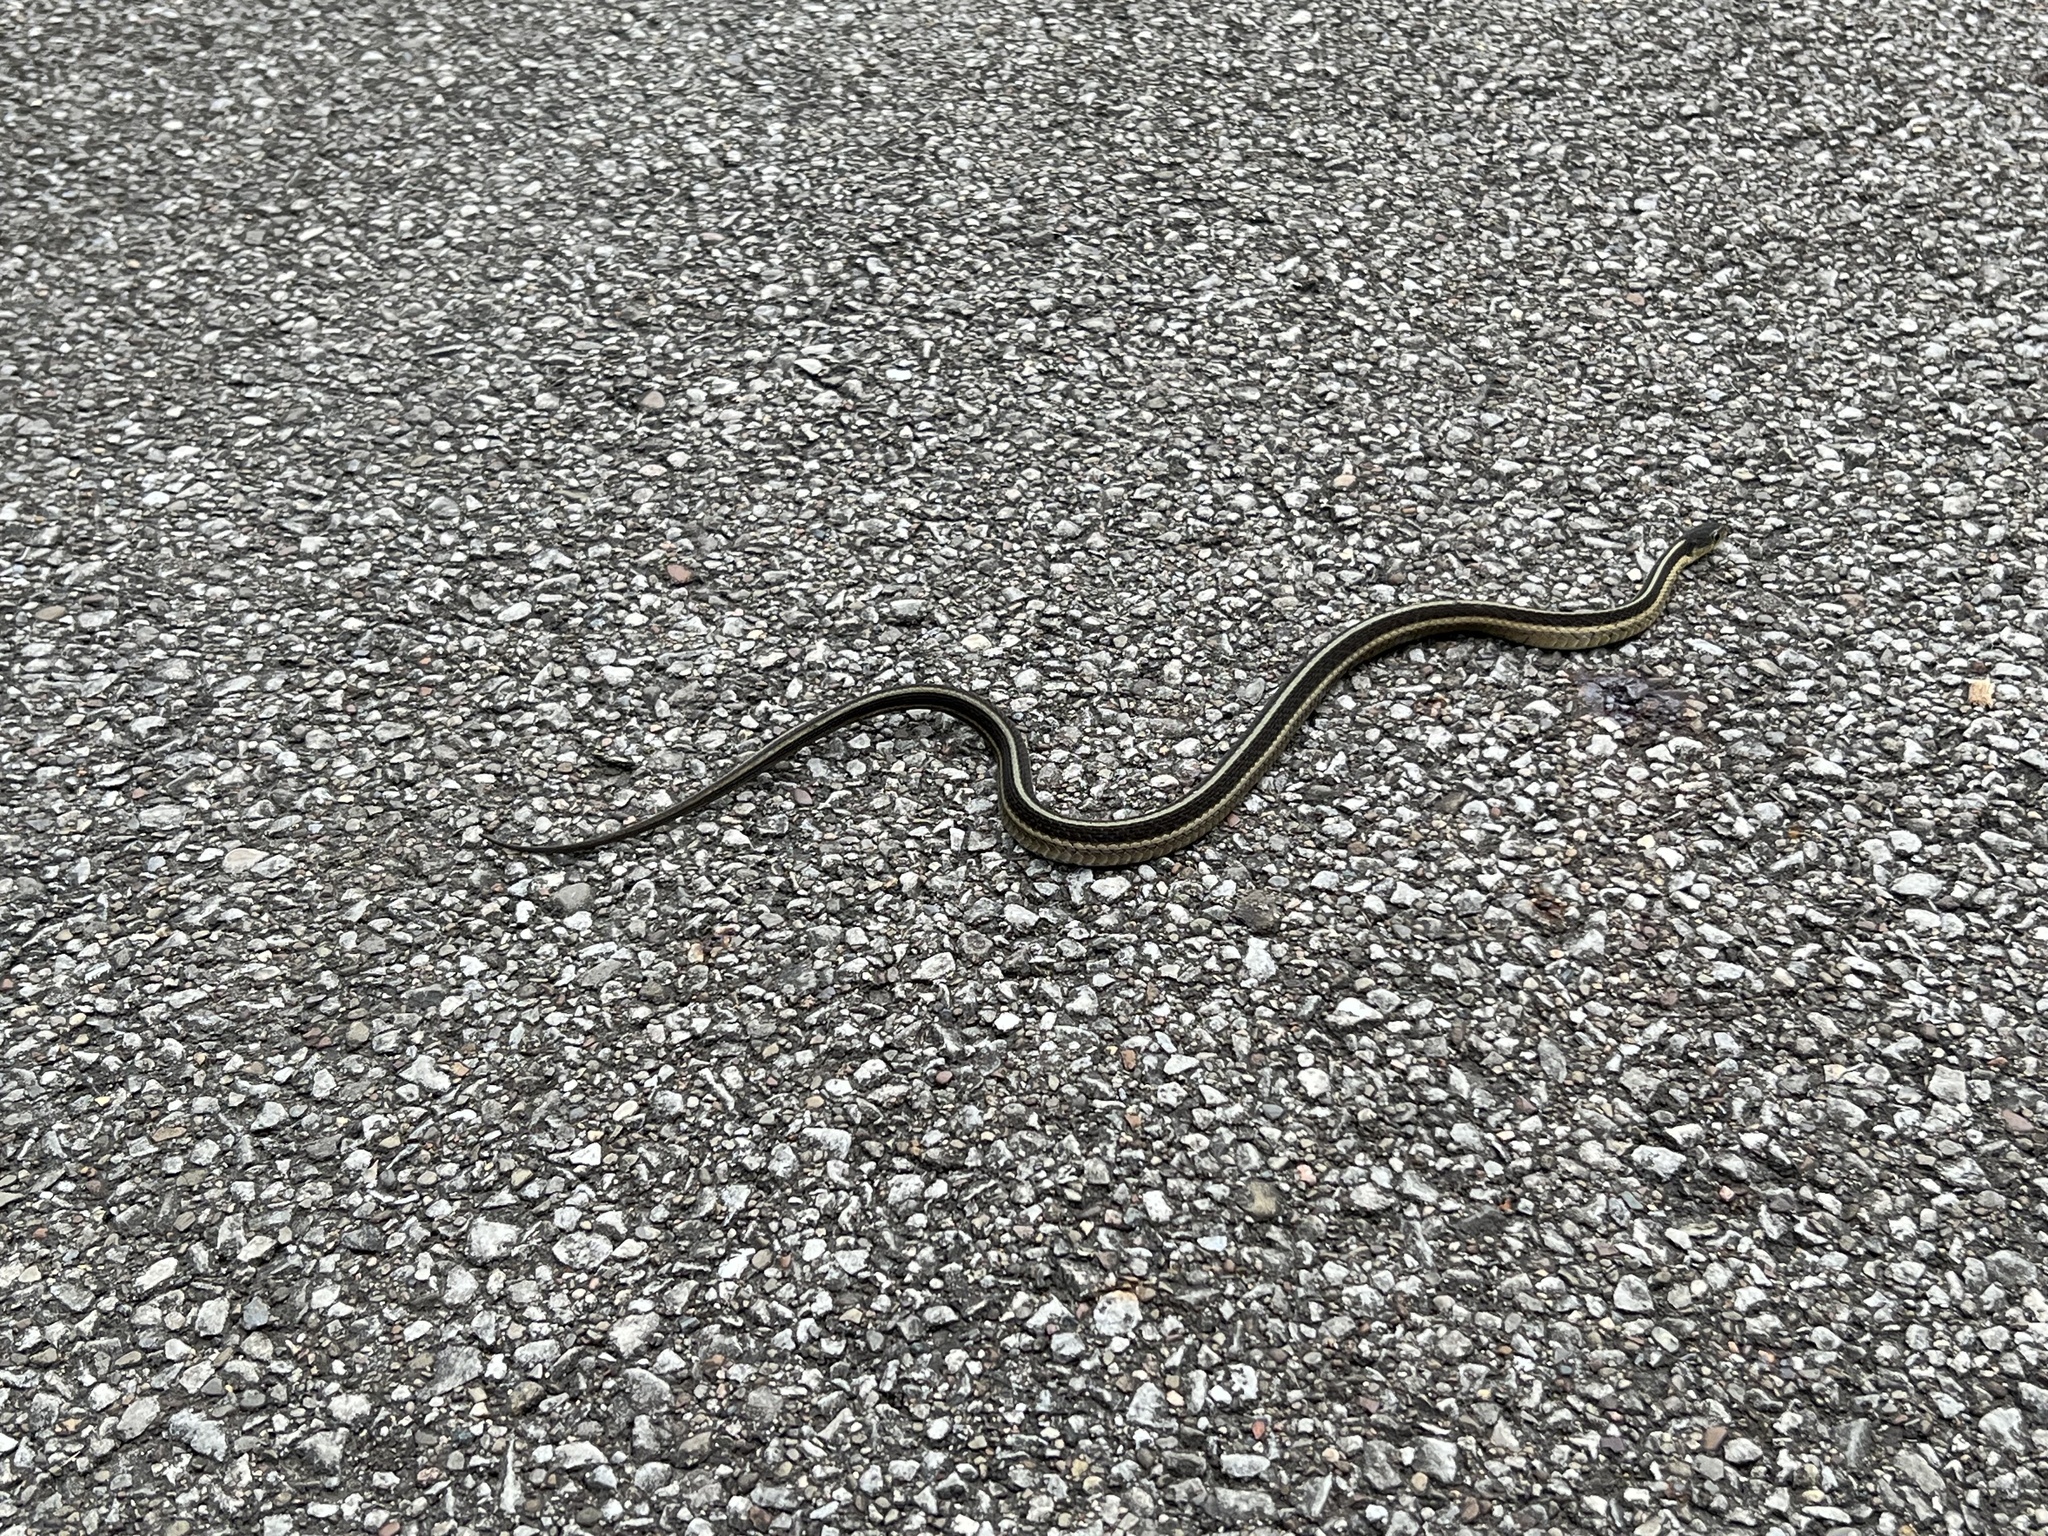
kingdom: Animalia
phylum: Chordata
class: Squamata
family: Colubridae
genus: Thamnophis
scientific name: Thamnophis sirtalis
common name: Common garter snake
